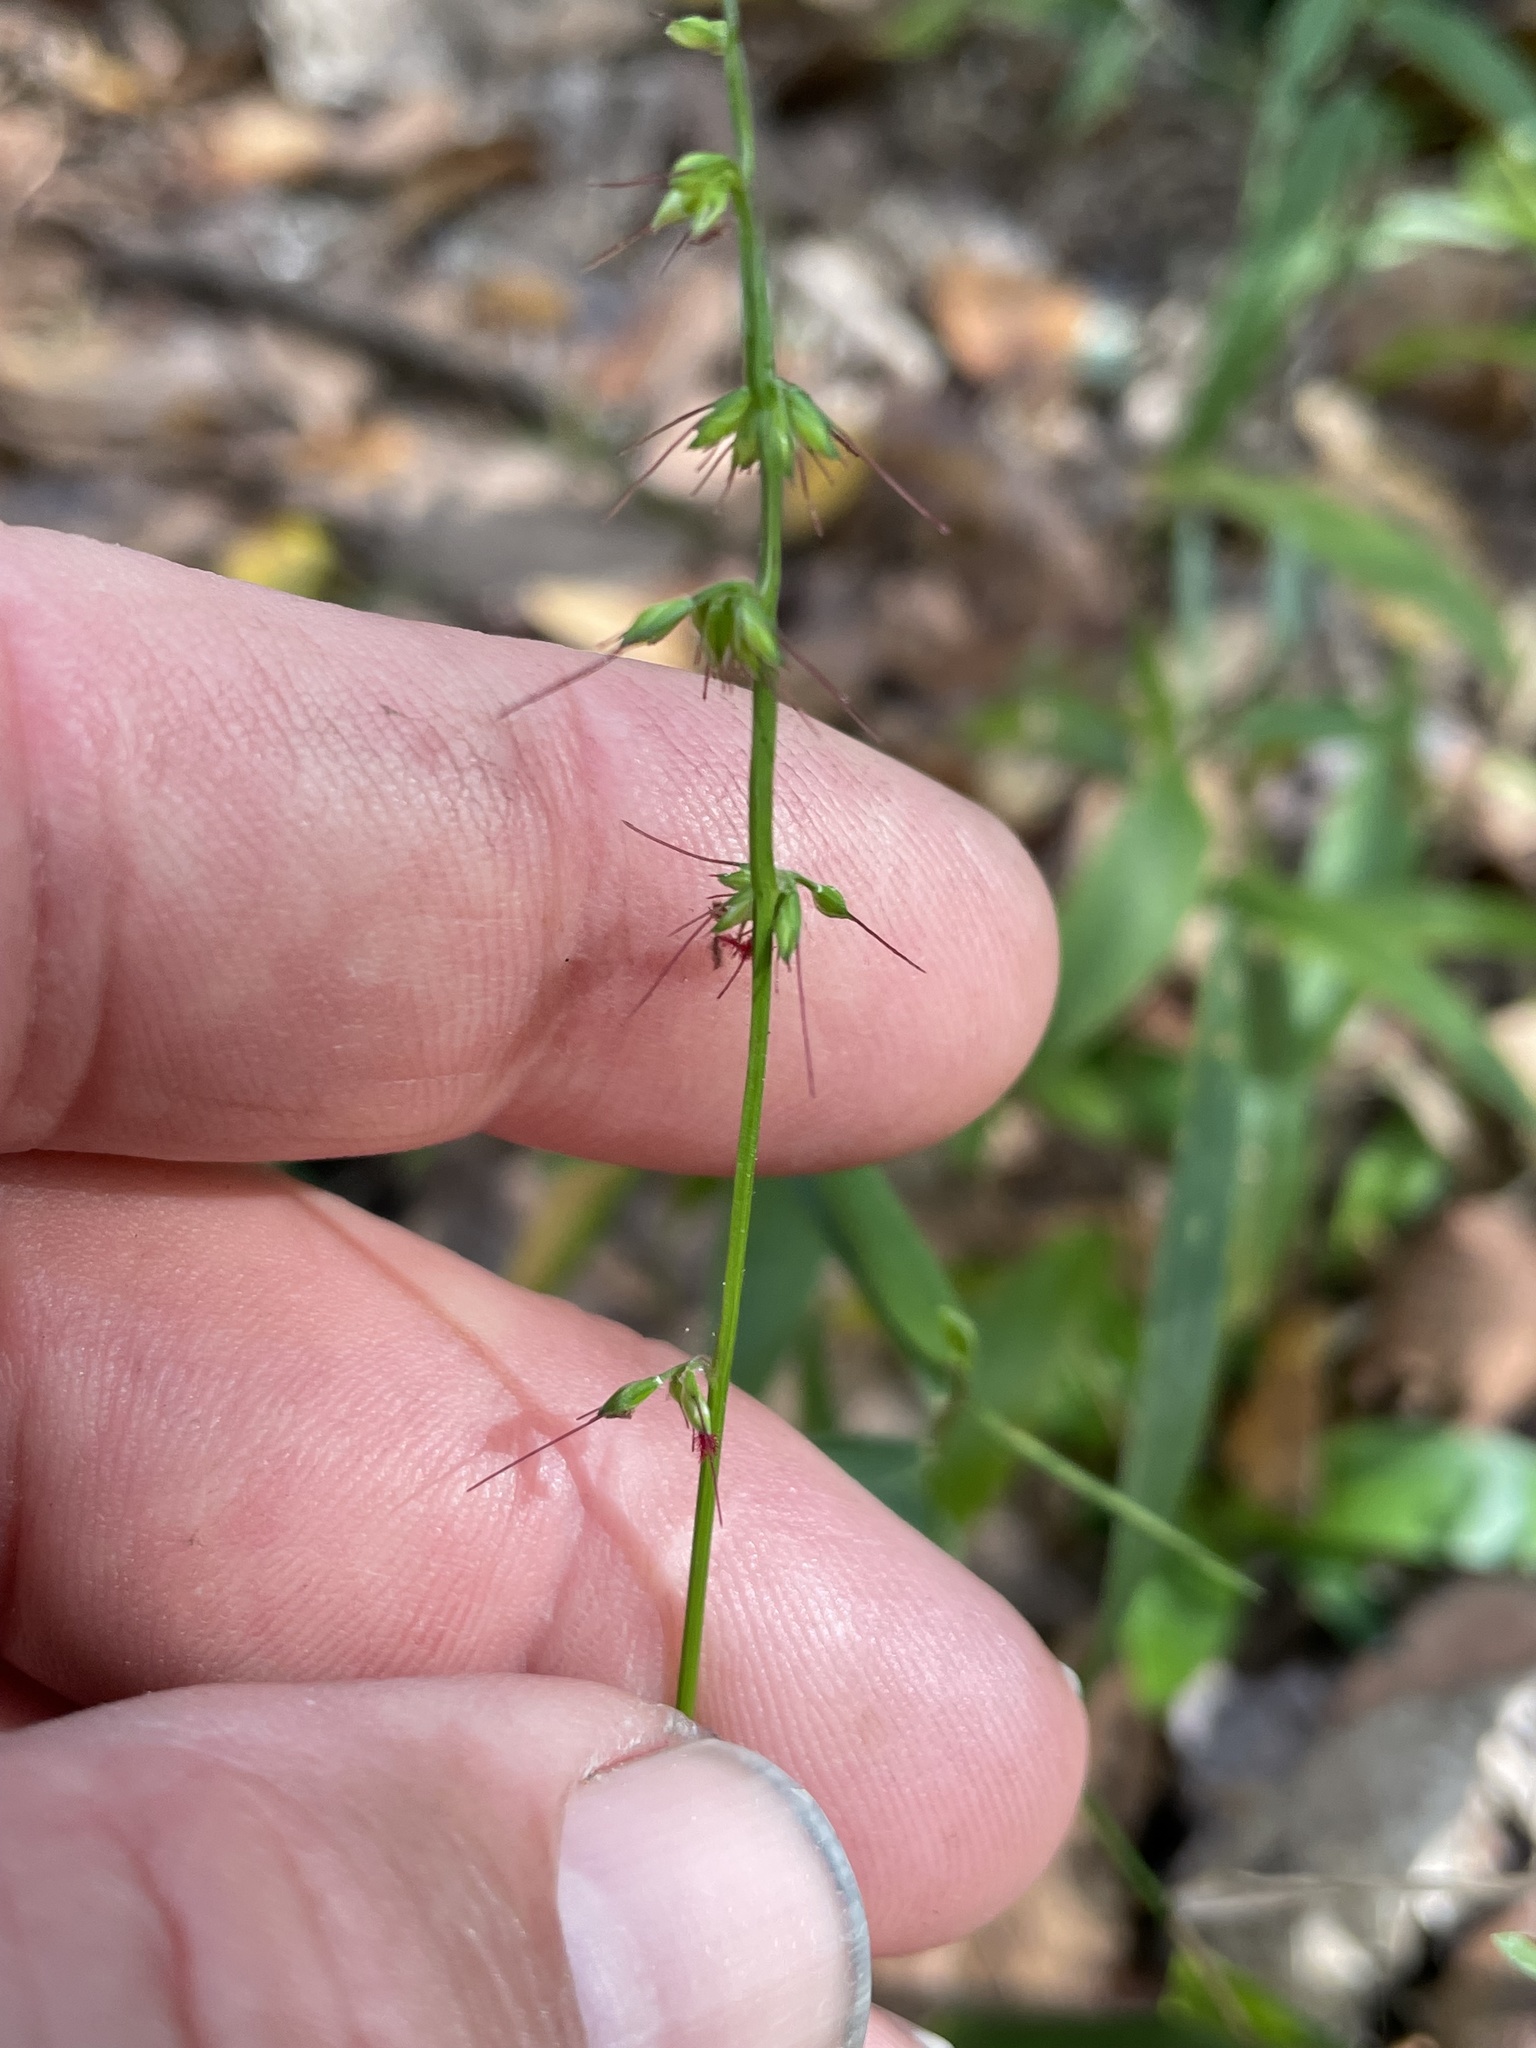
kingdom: Plantae
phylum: Tracheophyta
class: Liliopsida
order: Poales
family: Poaceae
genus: Oplismenus
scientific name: Oplismenus hirtellus
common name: Basketgrass
